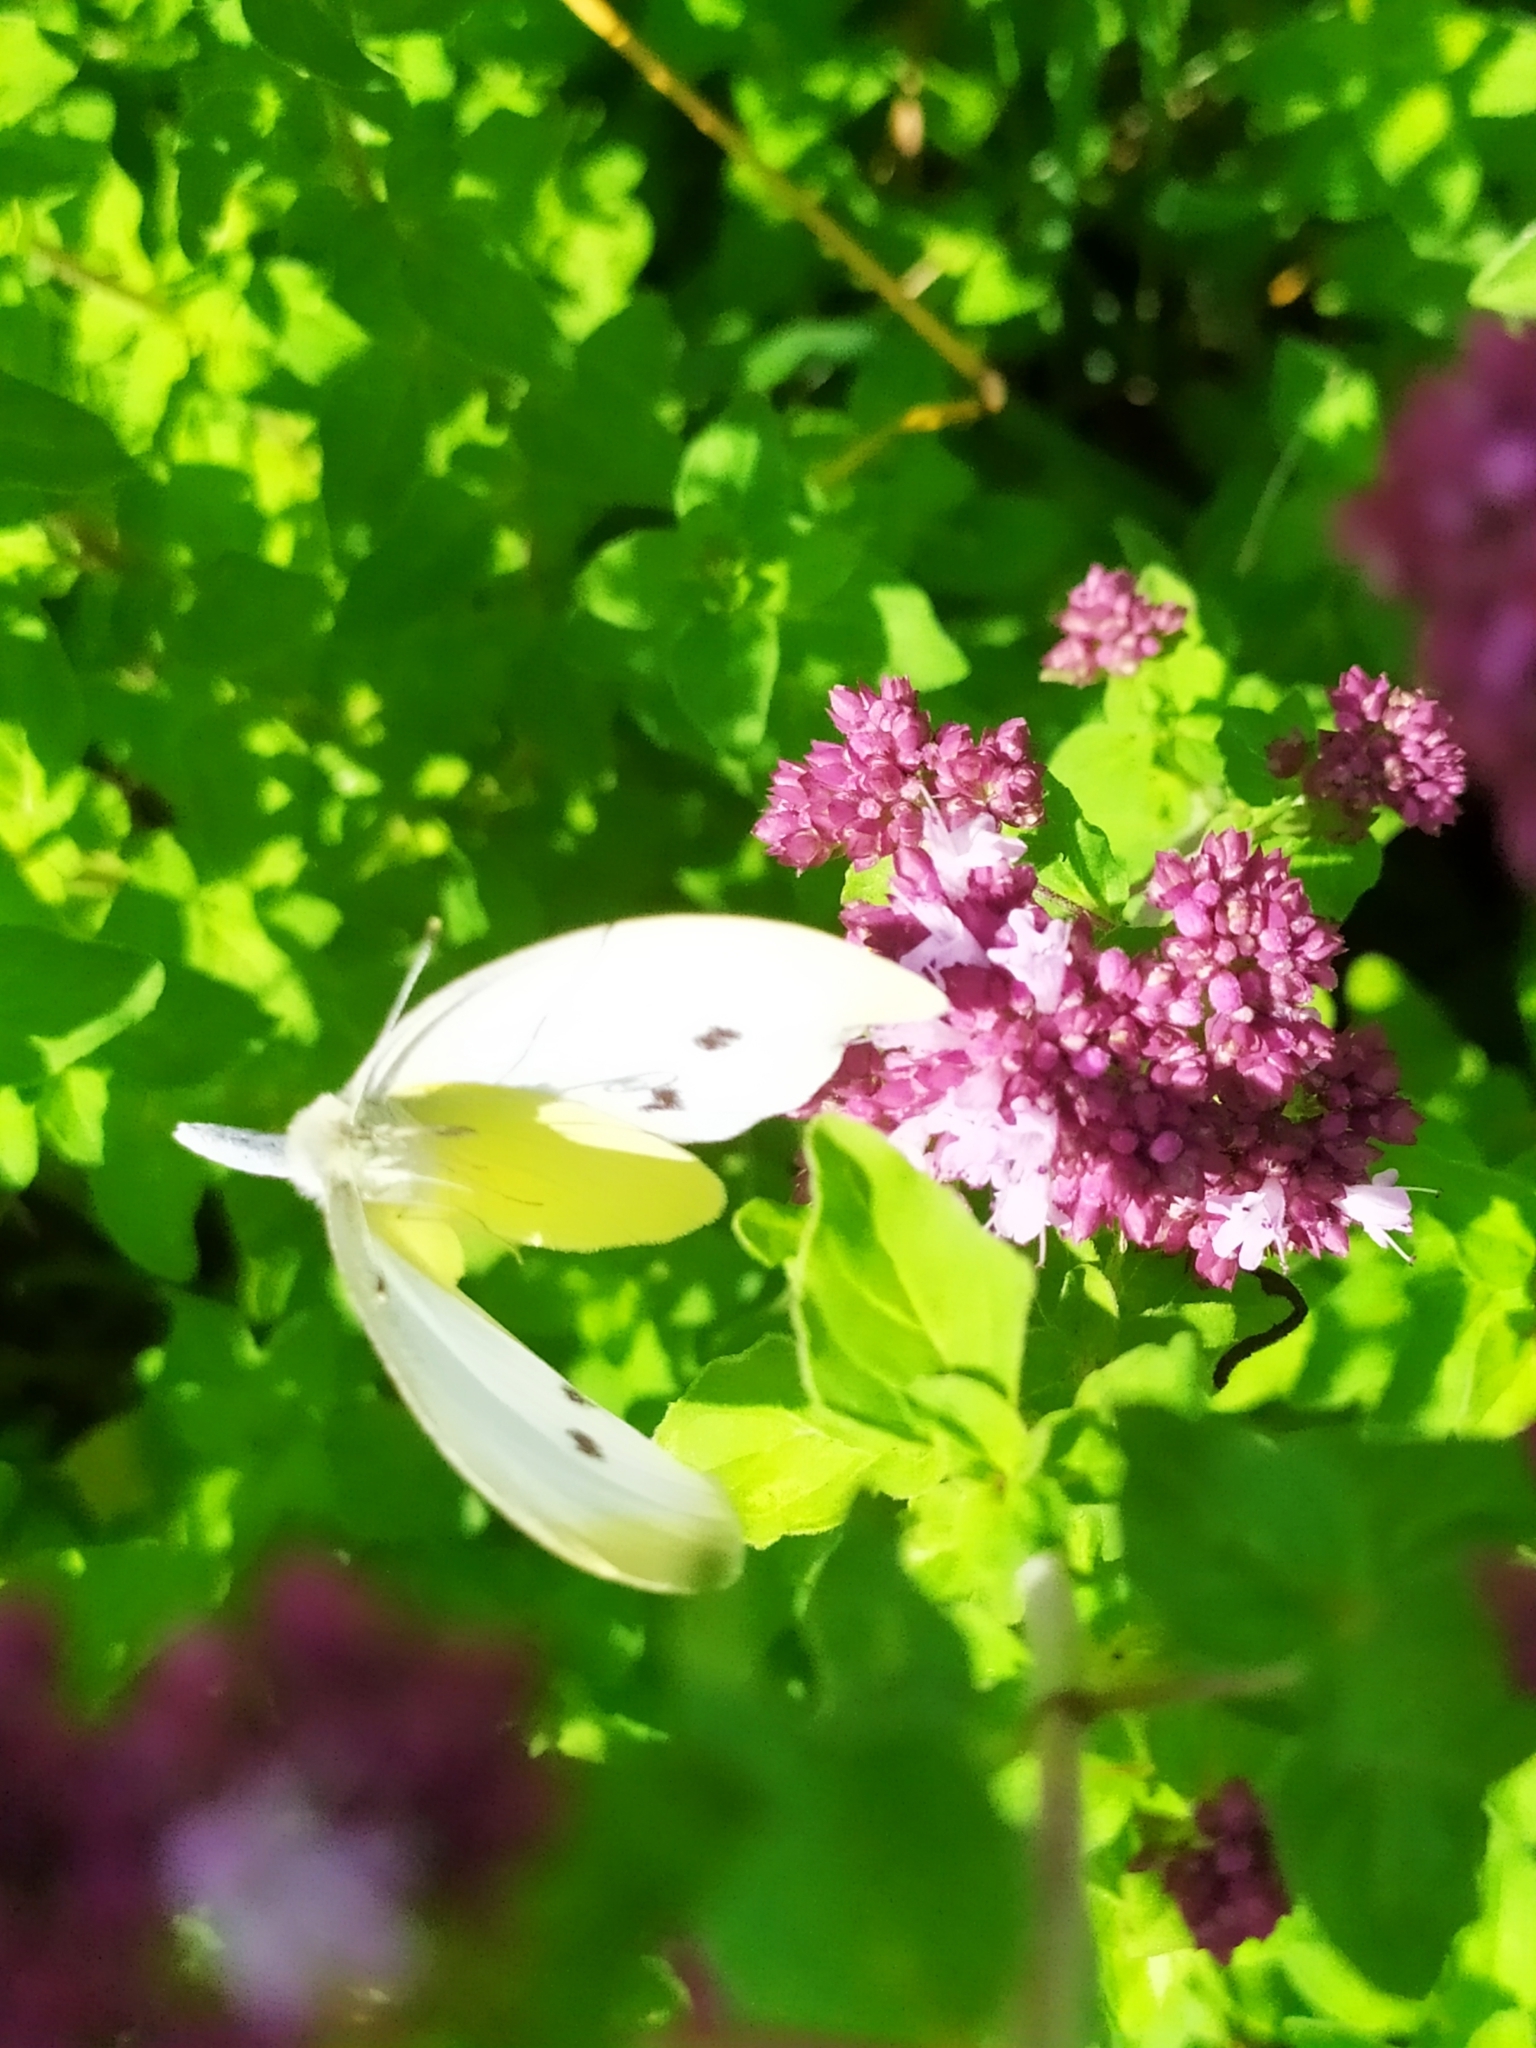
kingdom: Animalia
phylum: Arthropoda
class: Insecta
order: Lepidoptera
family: Pieridae
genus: Pieris
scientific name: Pieris rapae
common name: Small white
